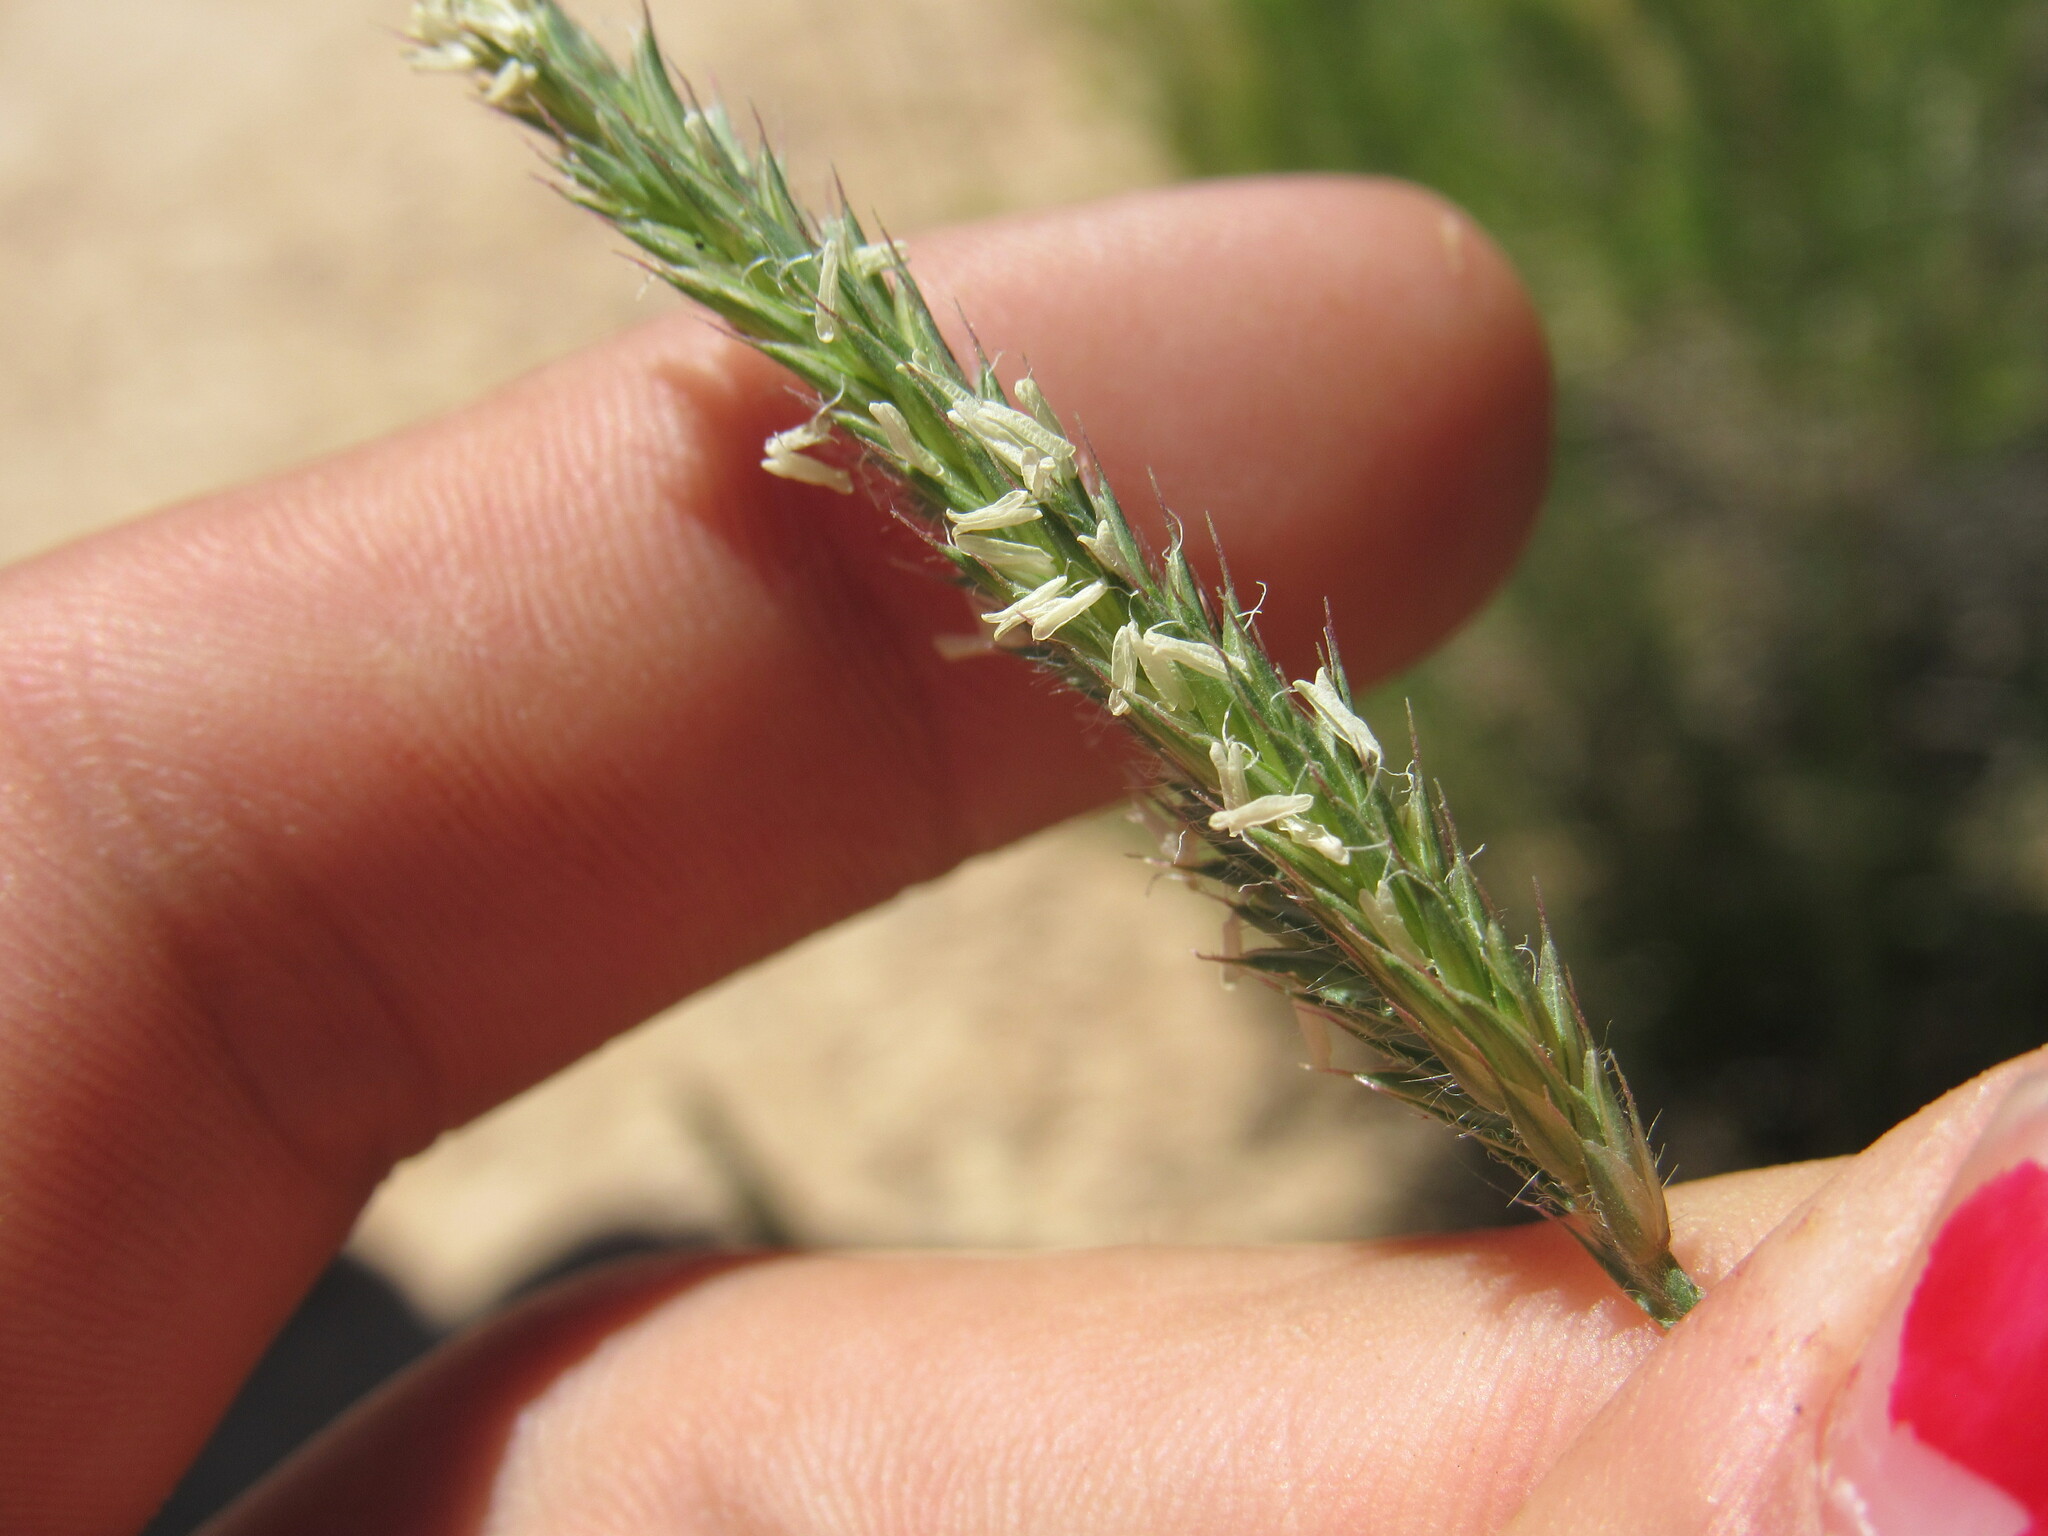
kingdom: Plantae
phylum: Tracheophyta
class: Liliopsida
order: Poales
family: Poaceae
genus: Agropyron
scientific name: Agropyron cristatum
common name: Crested wheatgrass
